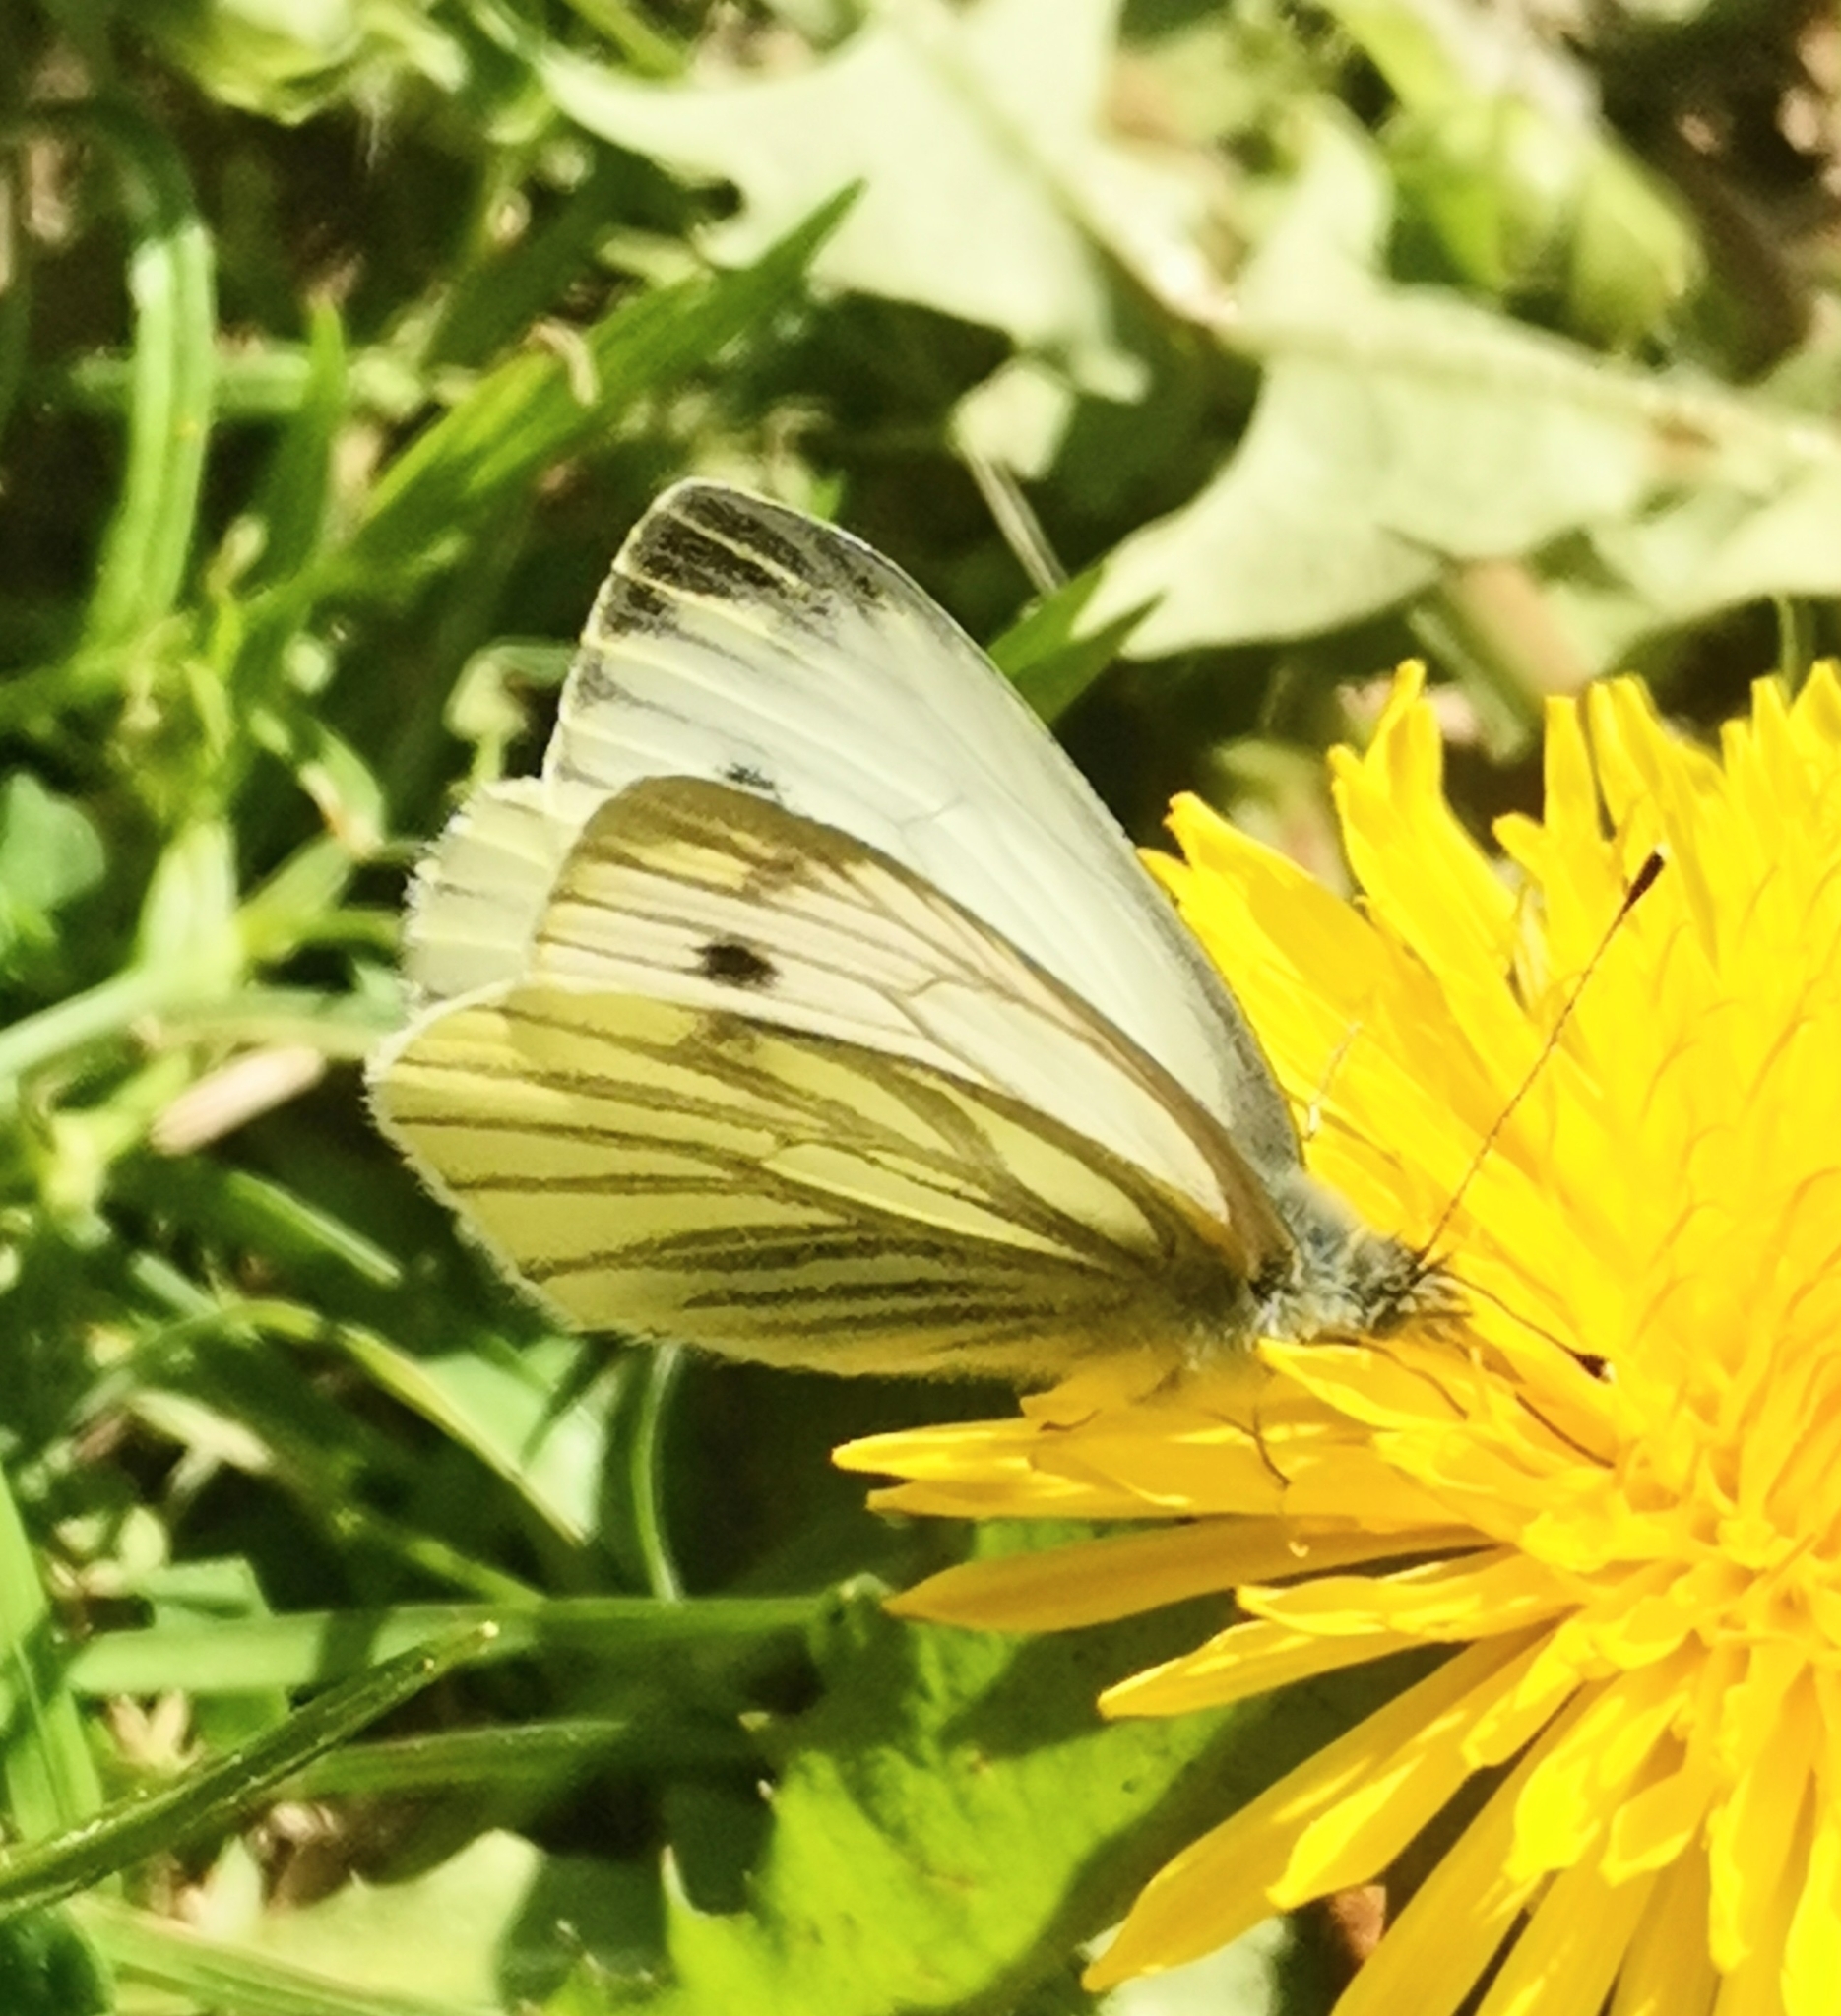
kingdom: Animalia
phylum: Arthropoda
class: Insecta
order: Lepidoptera
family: Pieridae
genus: Pieris
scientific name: Pieris napi
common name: Green-veined white
